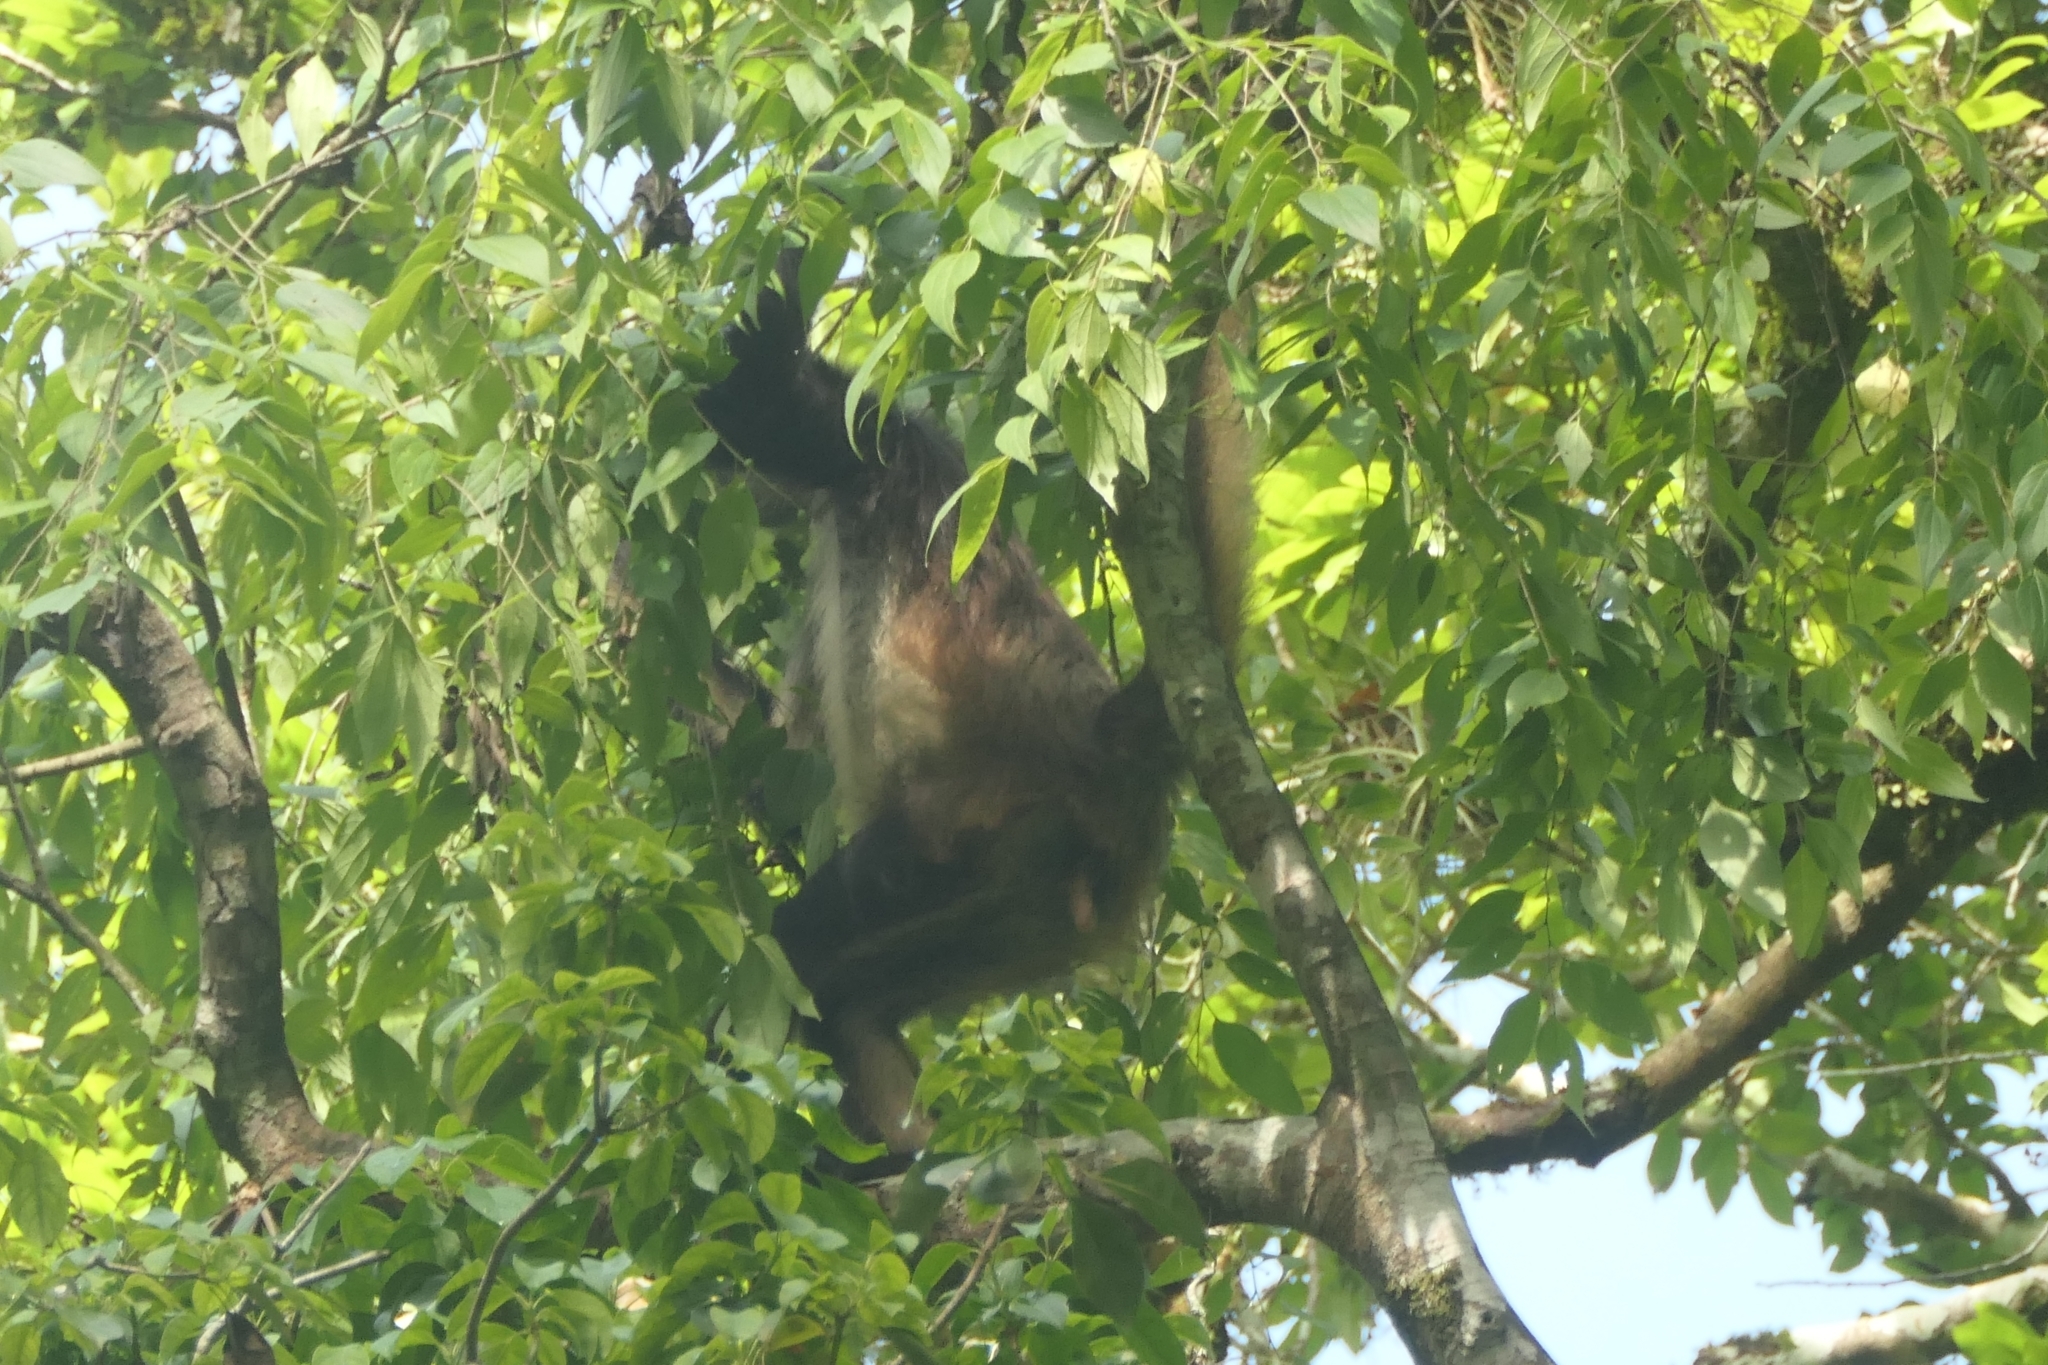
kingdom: Animalia
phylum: Chordata
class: Mammalia
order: Primates
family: Atelidae
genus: Ateles
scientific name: Ateles geoffroyi
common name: Black-handed spider monkey
